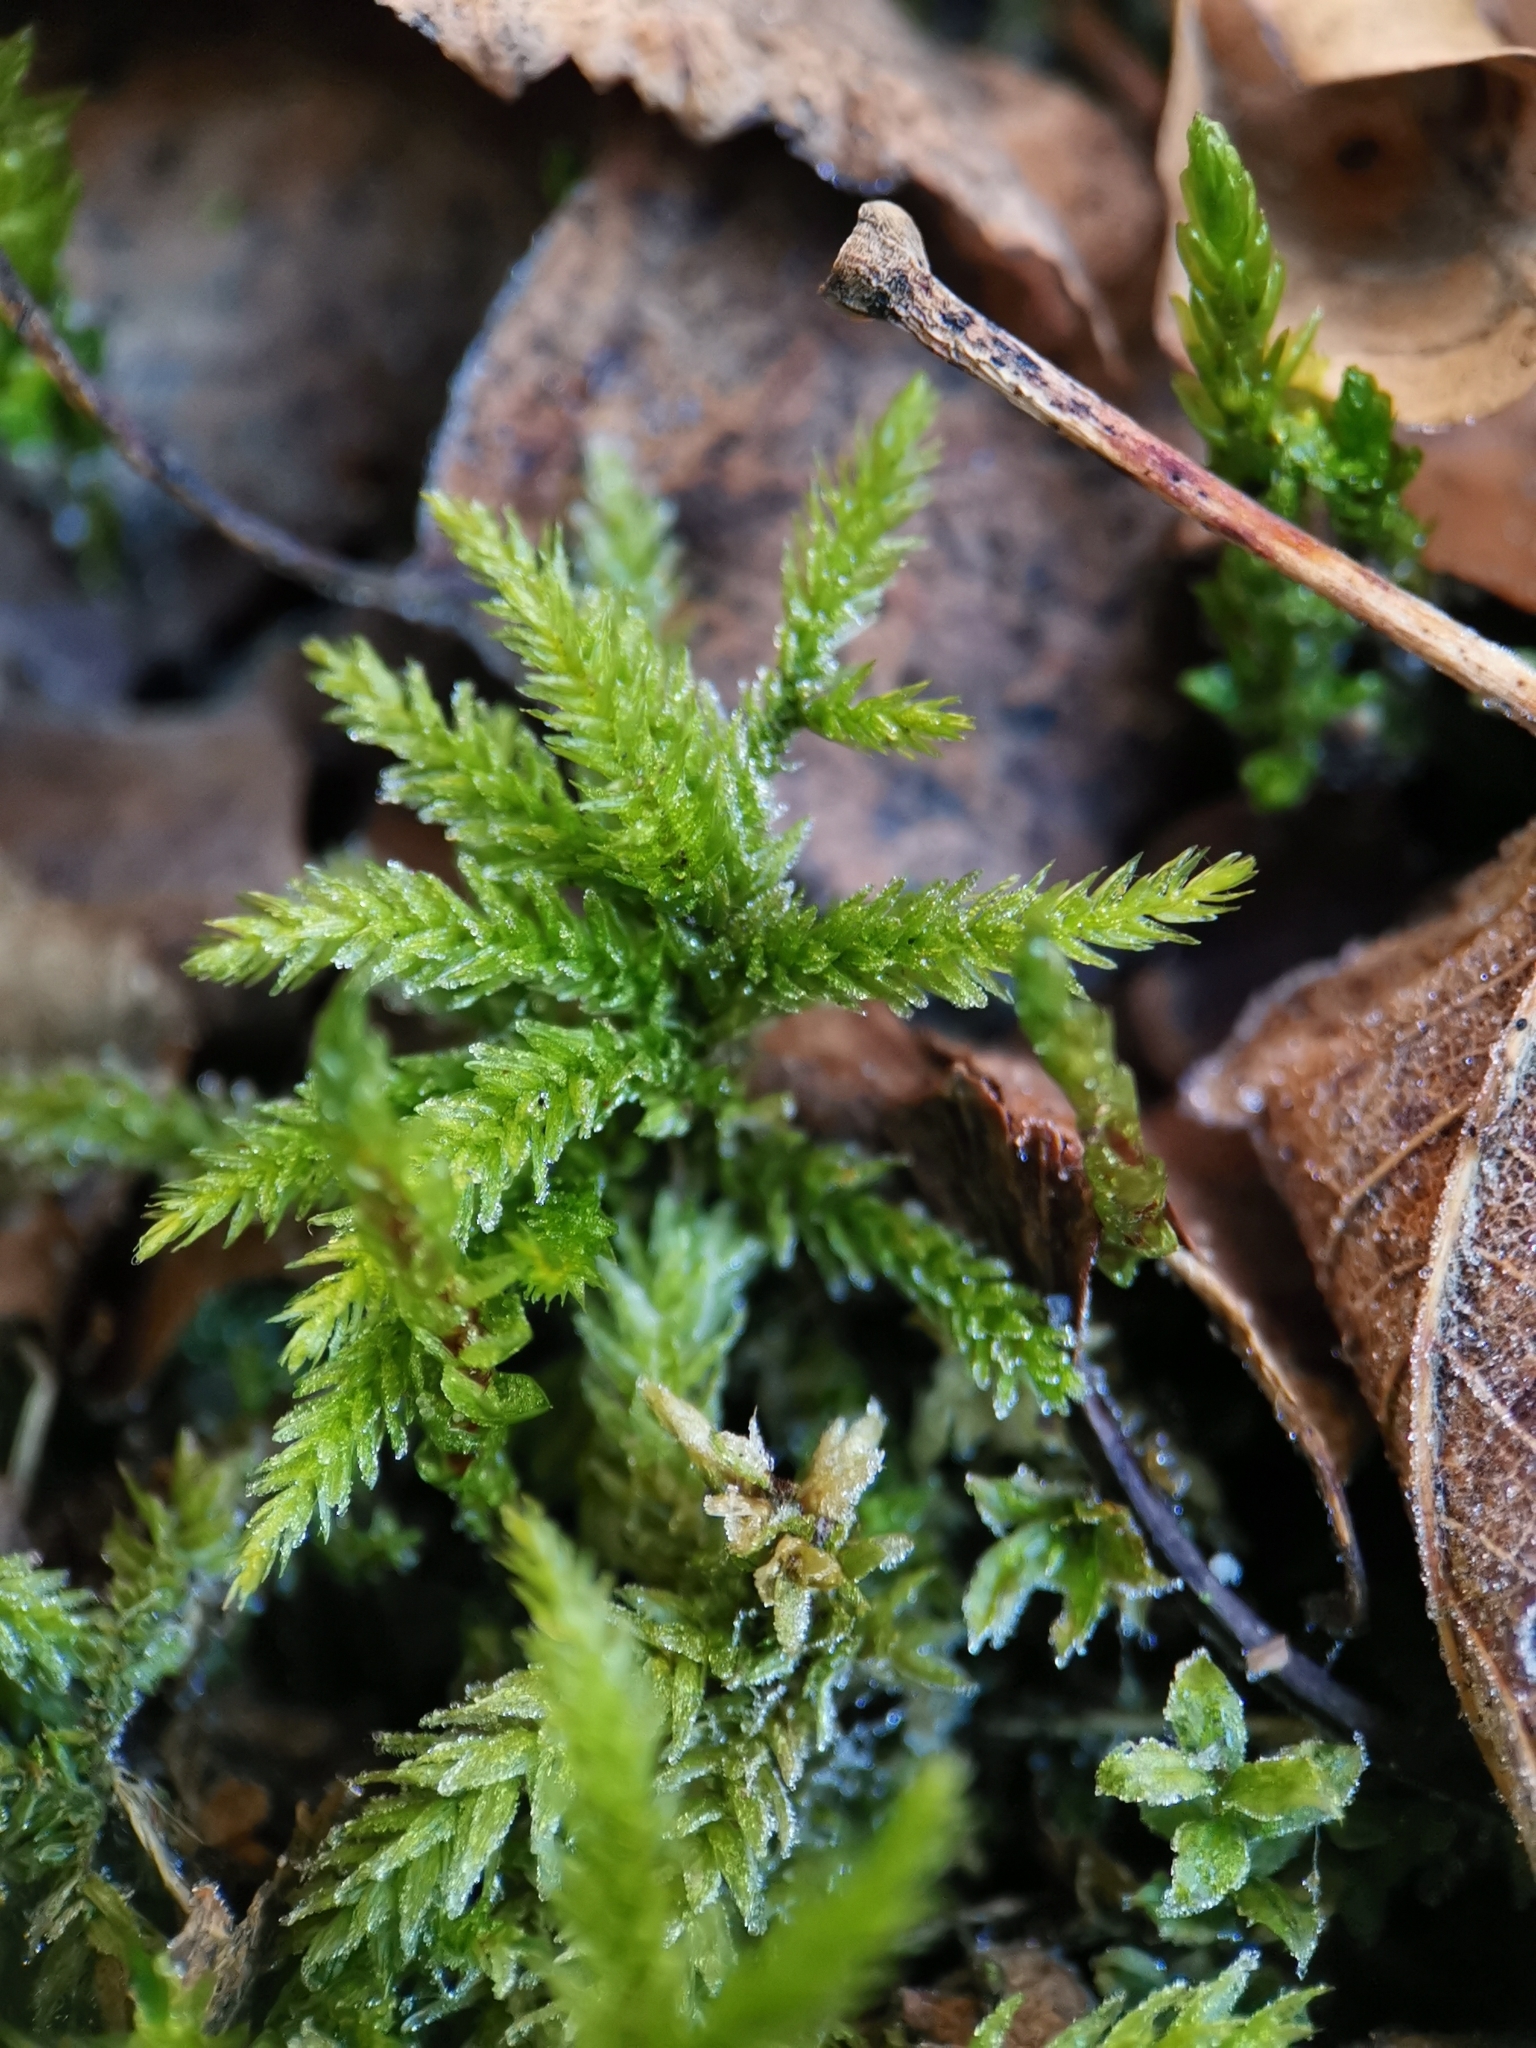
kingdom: Plantae
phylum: Bryophyta
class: Bryopsida
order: Hypnales
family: Climaciaceae
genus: Climacium
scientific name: Climacium dendroides
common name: Northern tree moss
